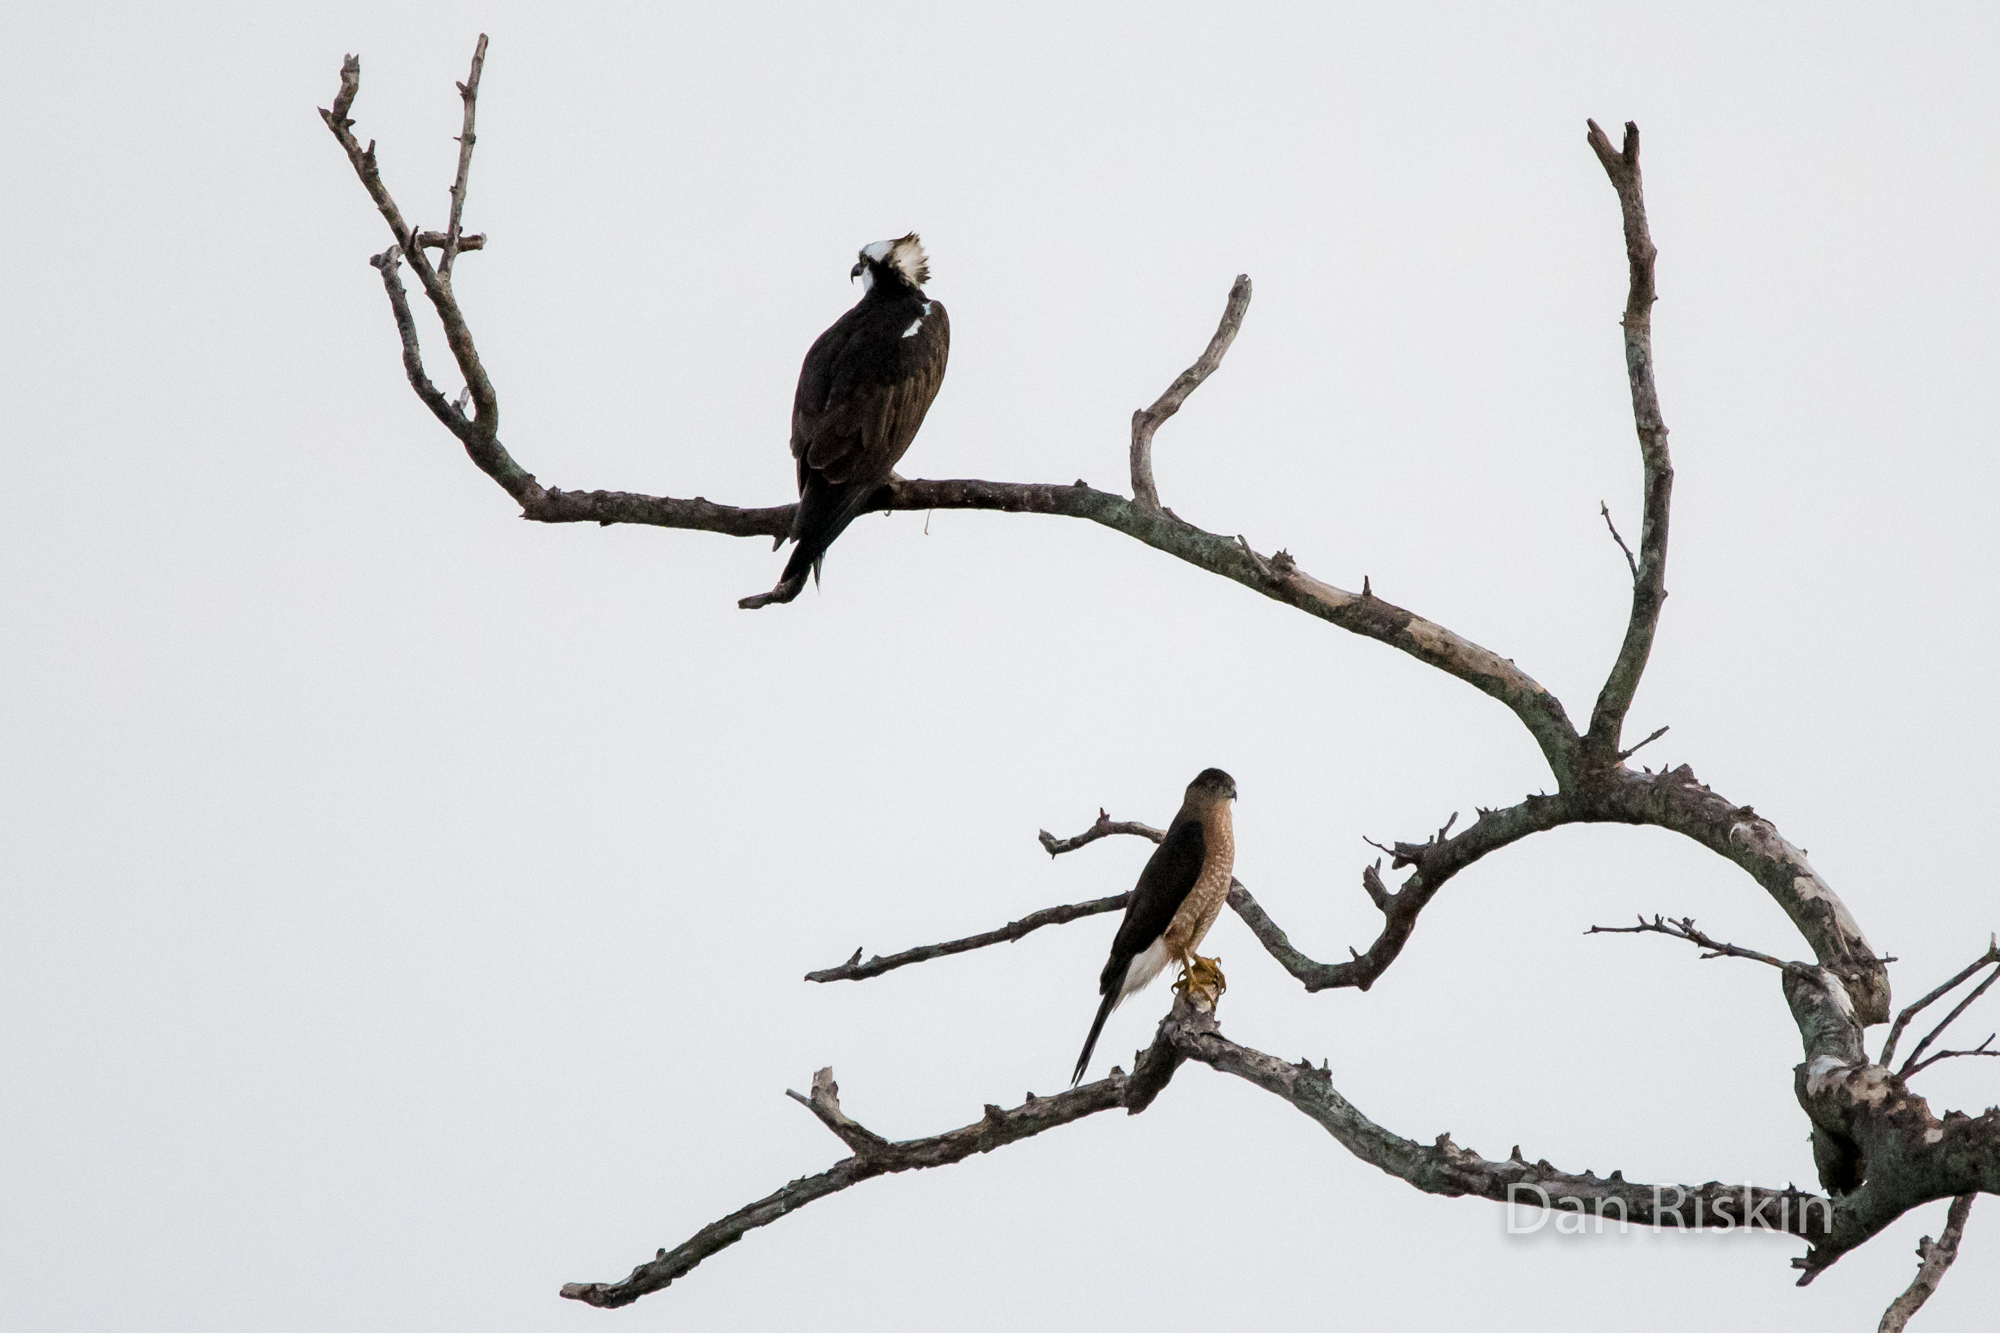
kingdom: Animalia
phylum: Chordata
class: Aves
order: Accipitriformes
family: Accipitridae
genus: Accipiter
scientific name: Accipiter cooperii
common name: Cooper's hawk
